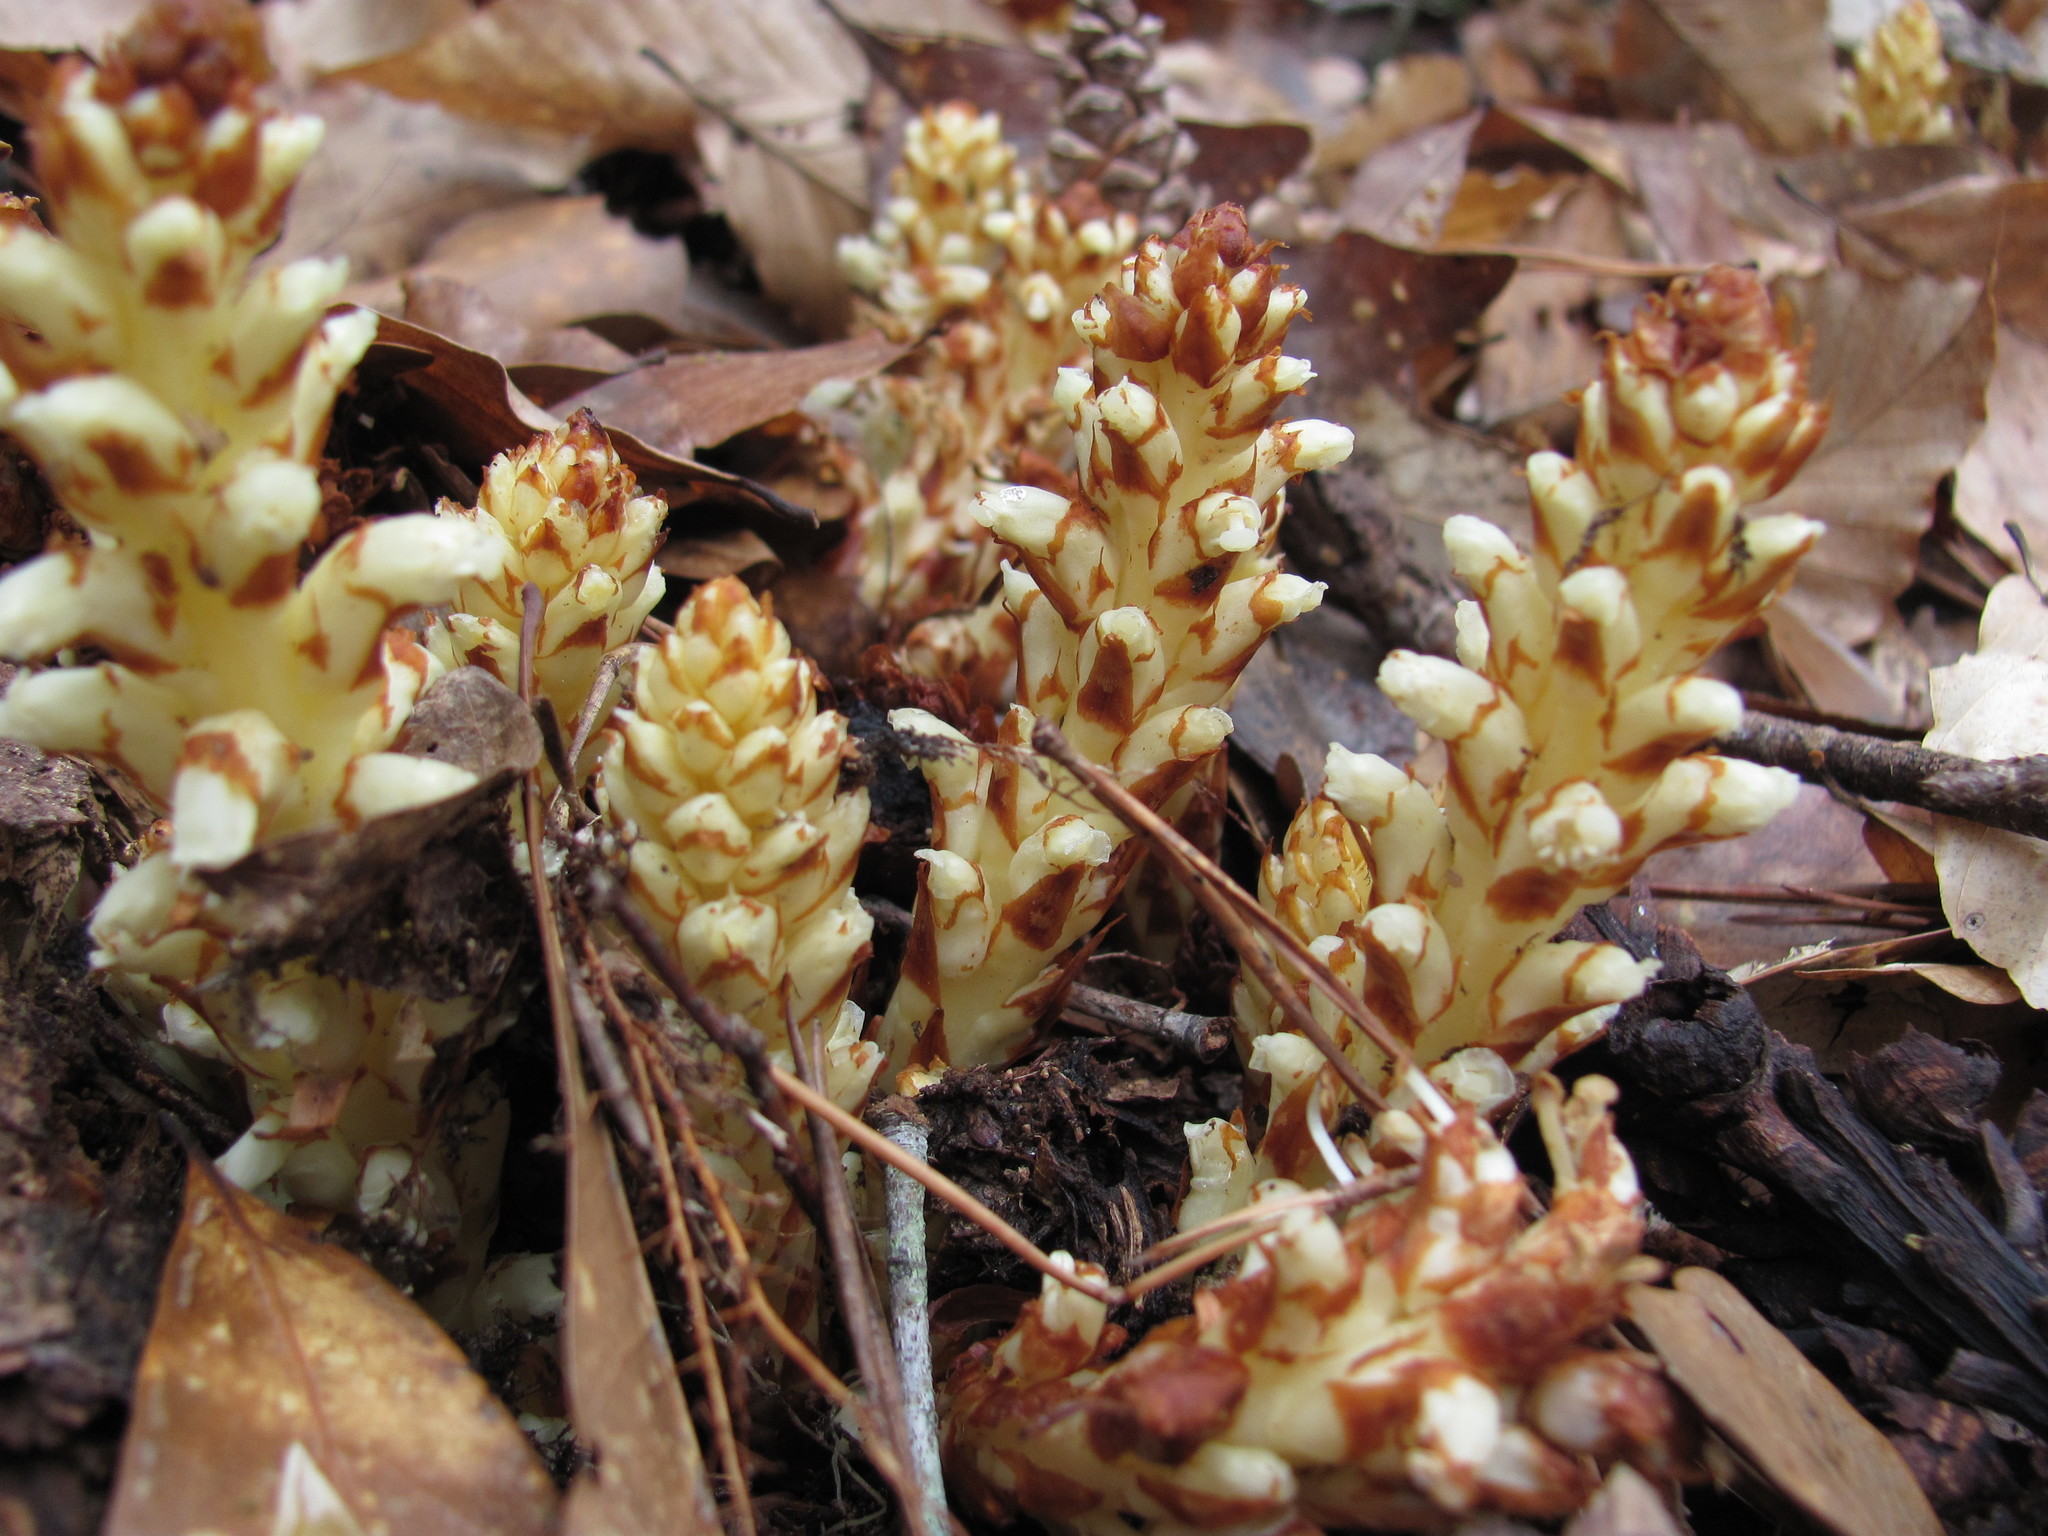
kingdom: Plantae
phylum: Tracheophyta
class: Magnoliopsida
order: Lamiales
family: Orobanchaceae
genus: Conopholis
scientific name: Conopholis americana
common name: American cancer-root
